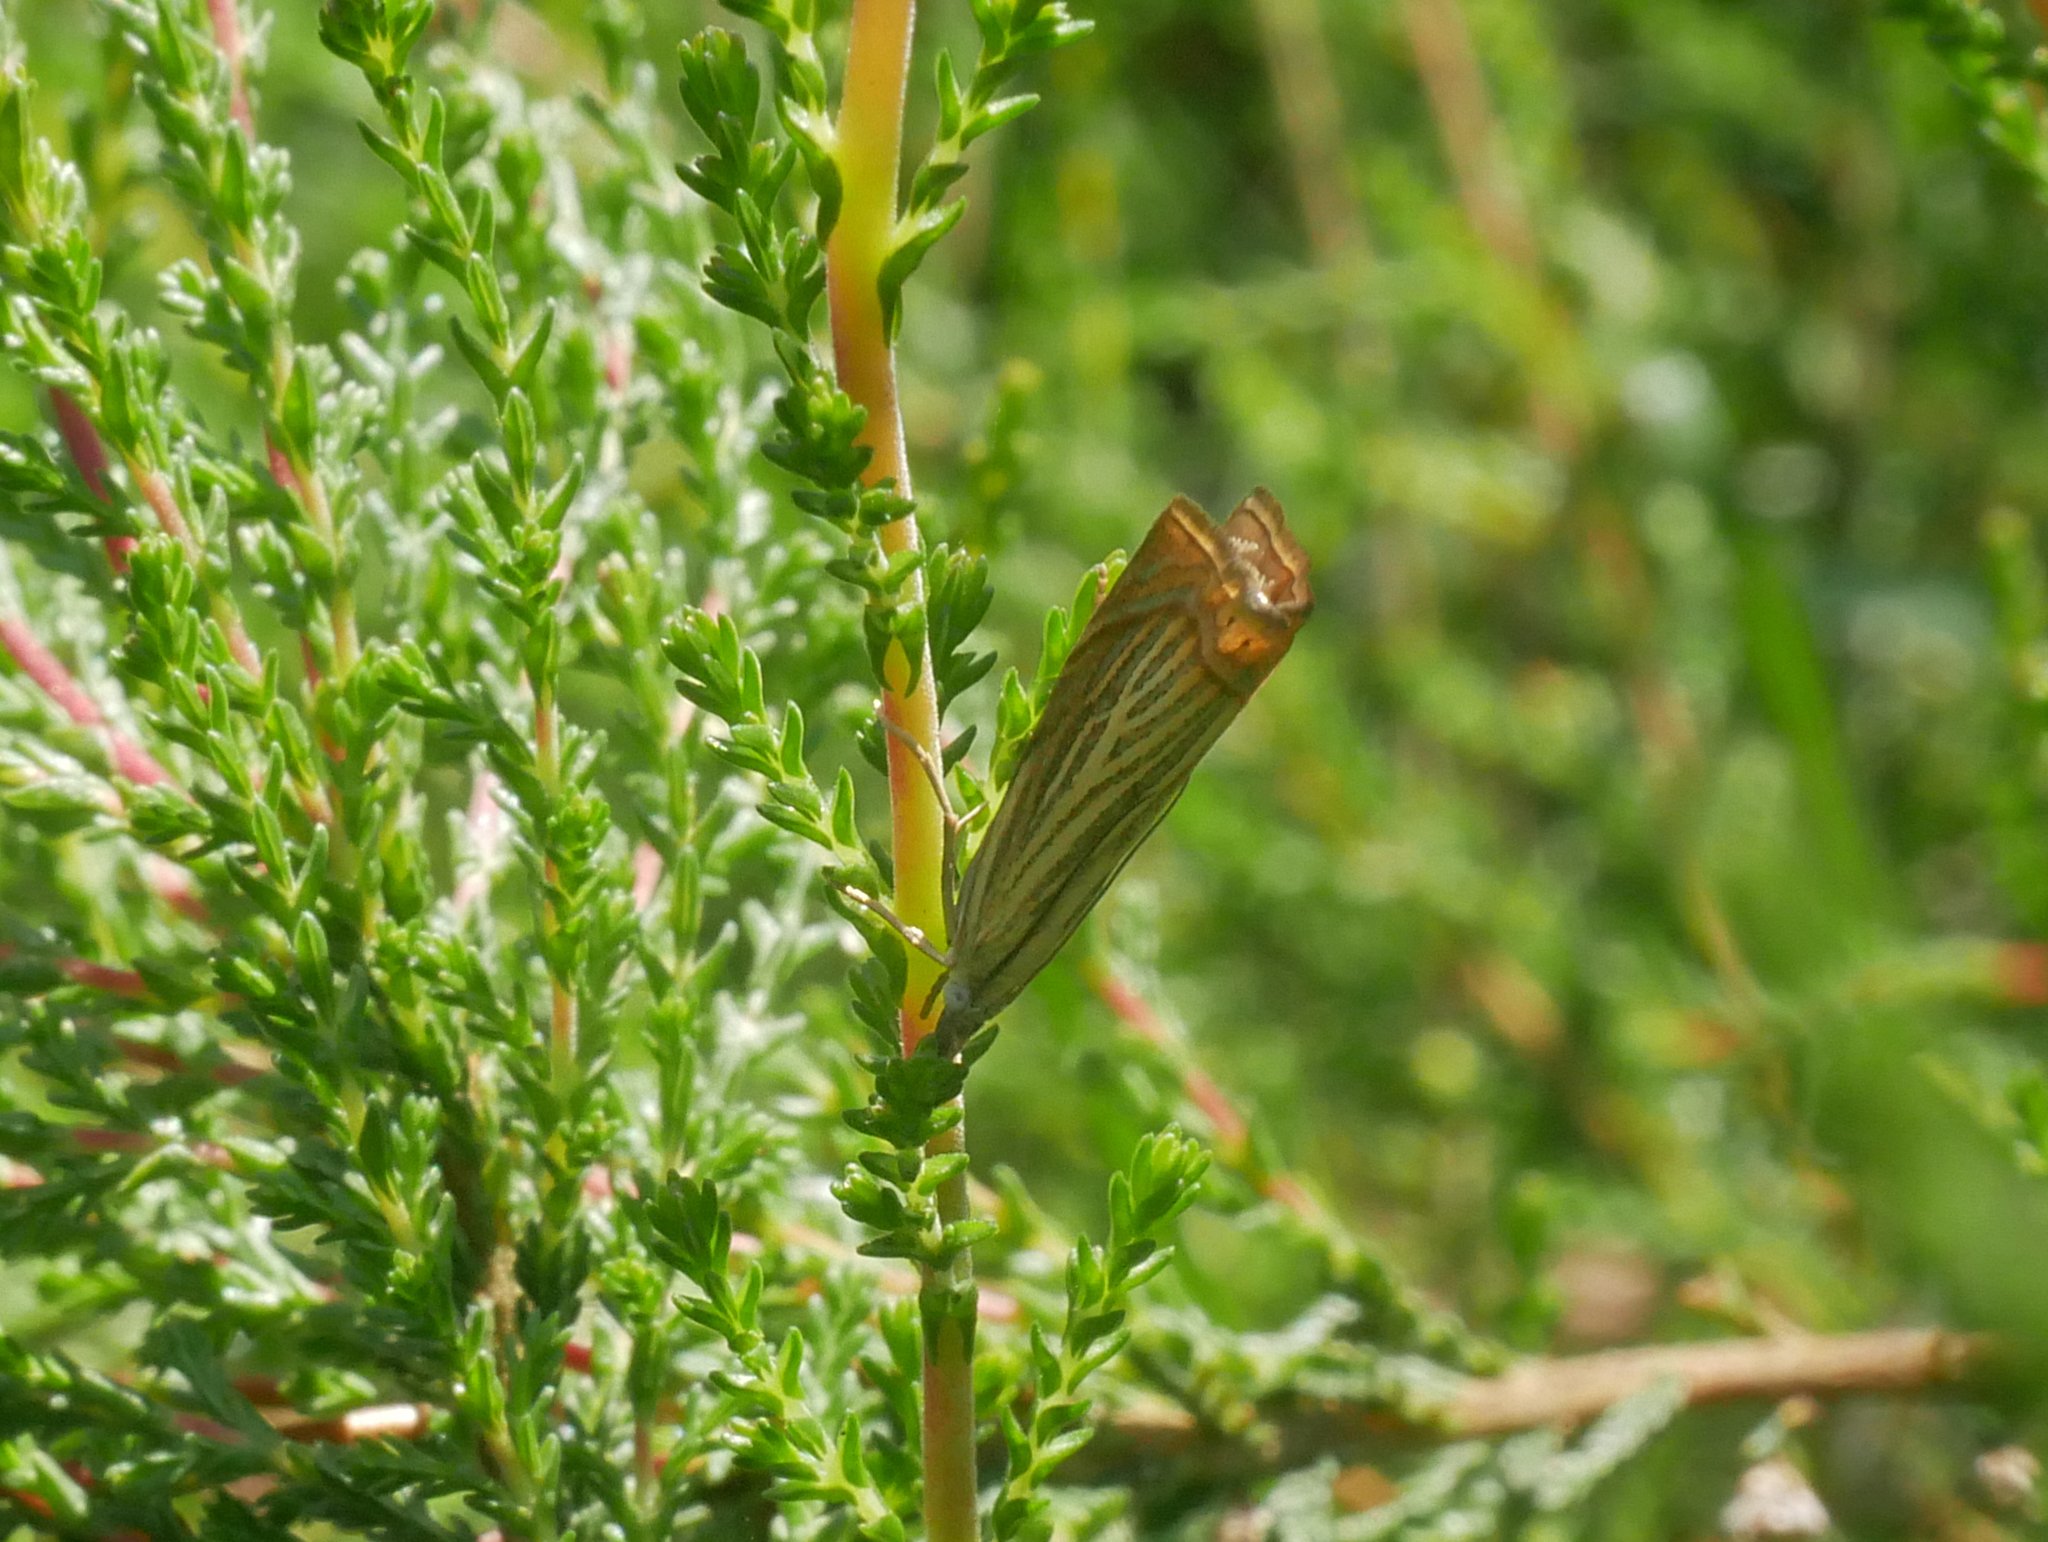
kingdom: Animalia
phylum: Arthropoda
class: Insecta
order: Lepidoptera
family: Crambidae
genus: Chrysoteuchia
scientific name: Chrysoteuchia culmella
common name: Garden grass-veneer
